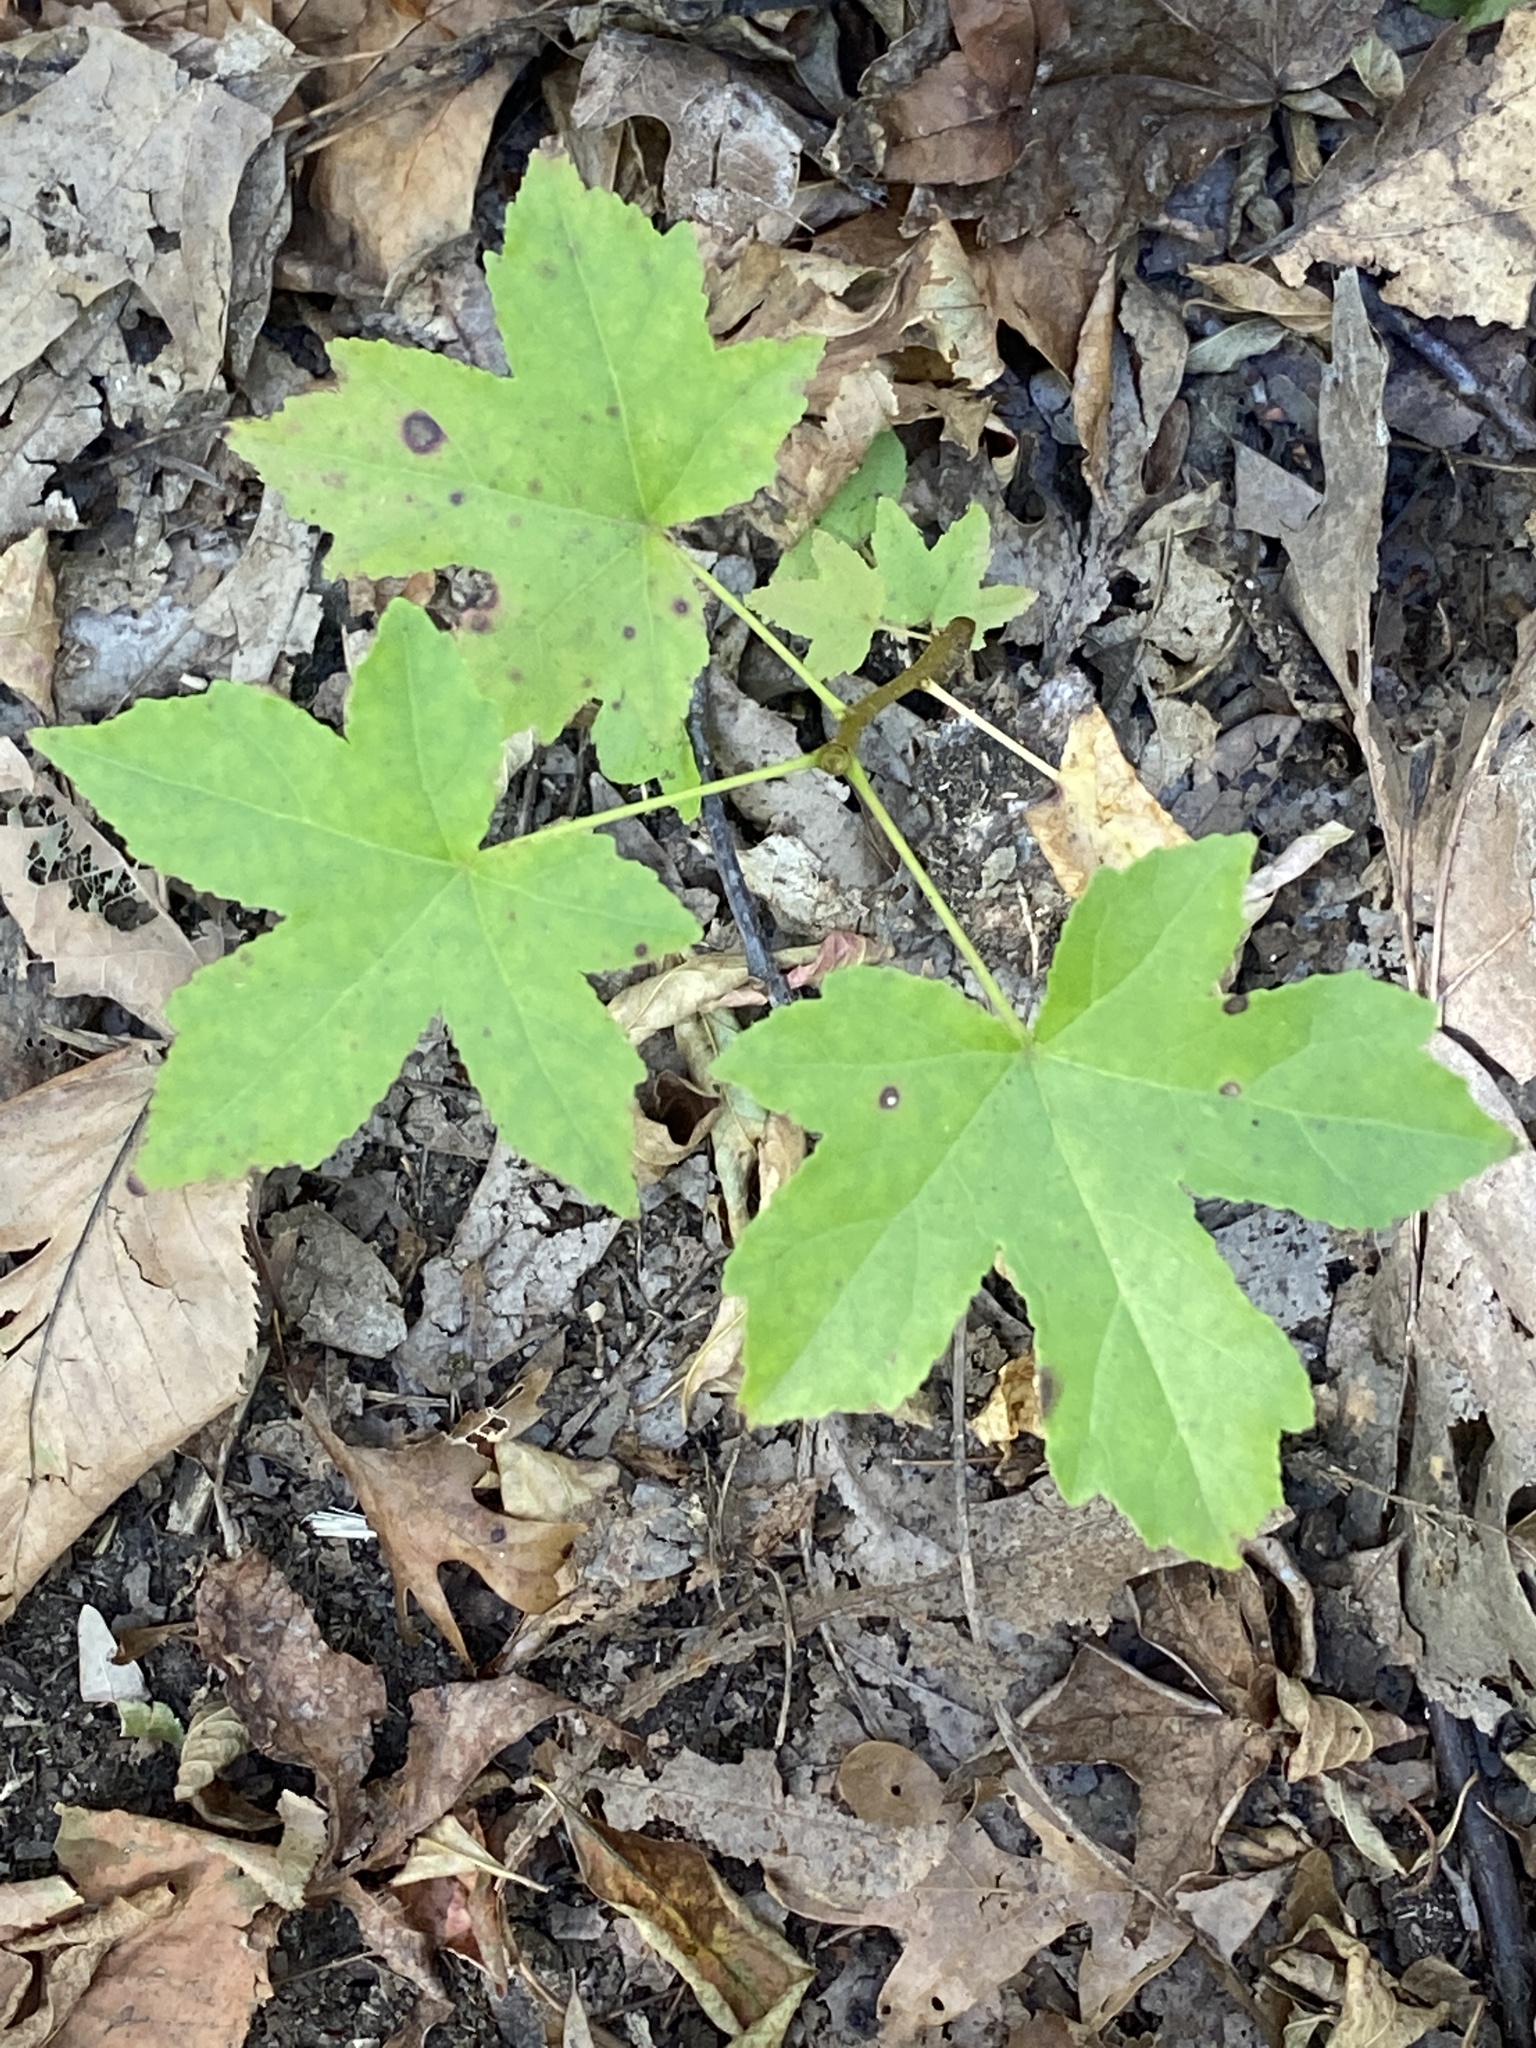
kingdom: Plantae
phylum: Tracheophyta
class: Magnoliopsida
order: Saxifragales
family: Altingiaceae
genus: Liquidambar
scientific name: Liquidambar styraciflua
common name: Sweet gum
